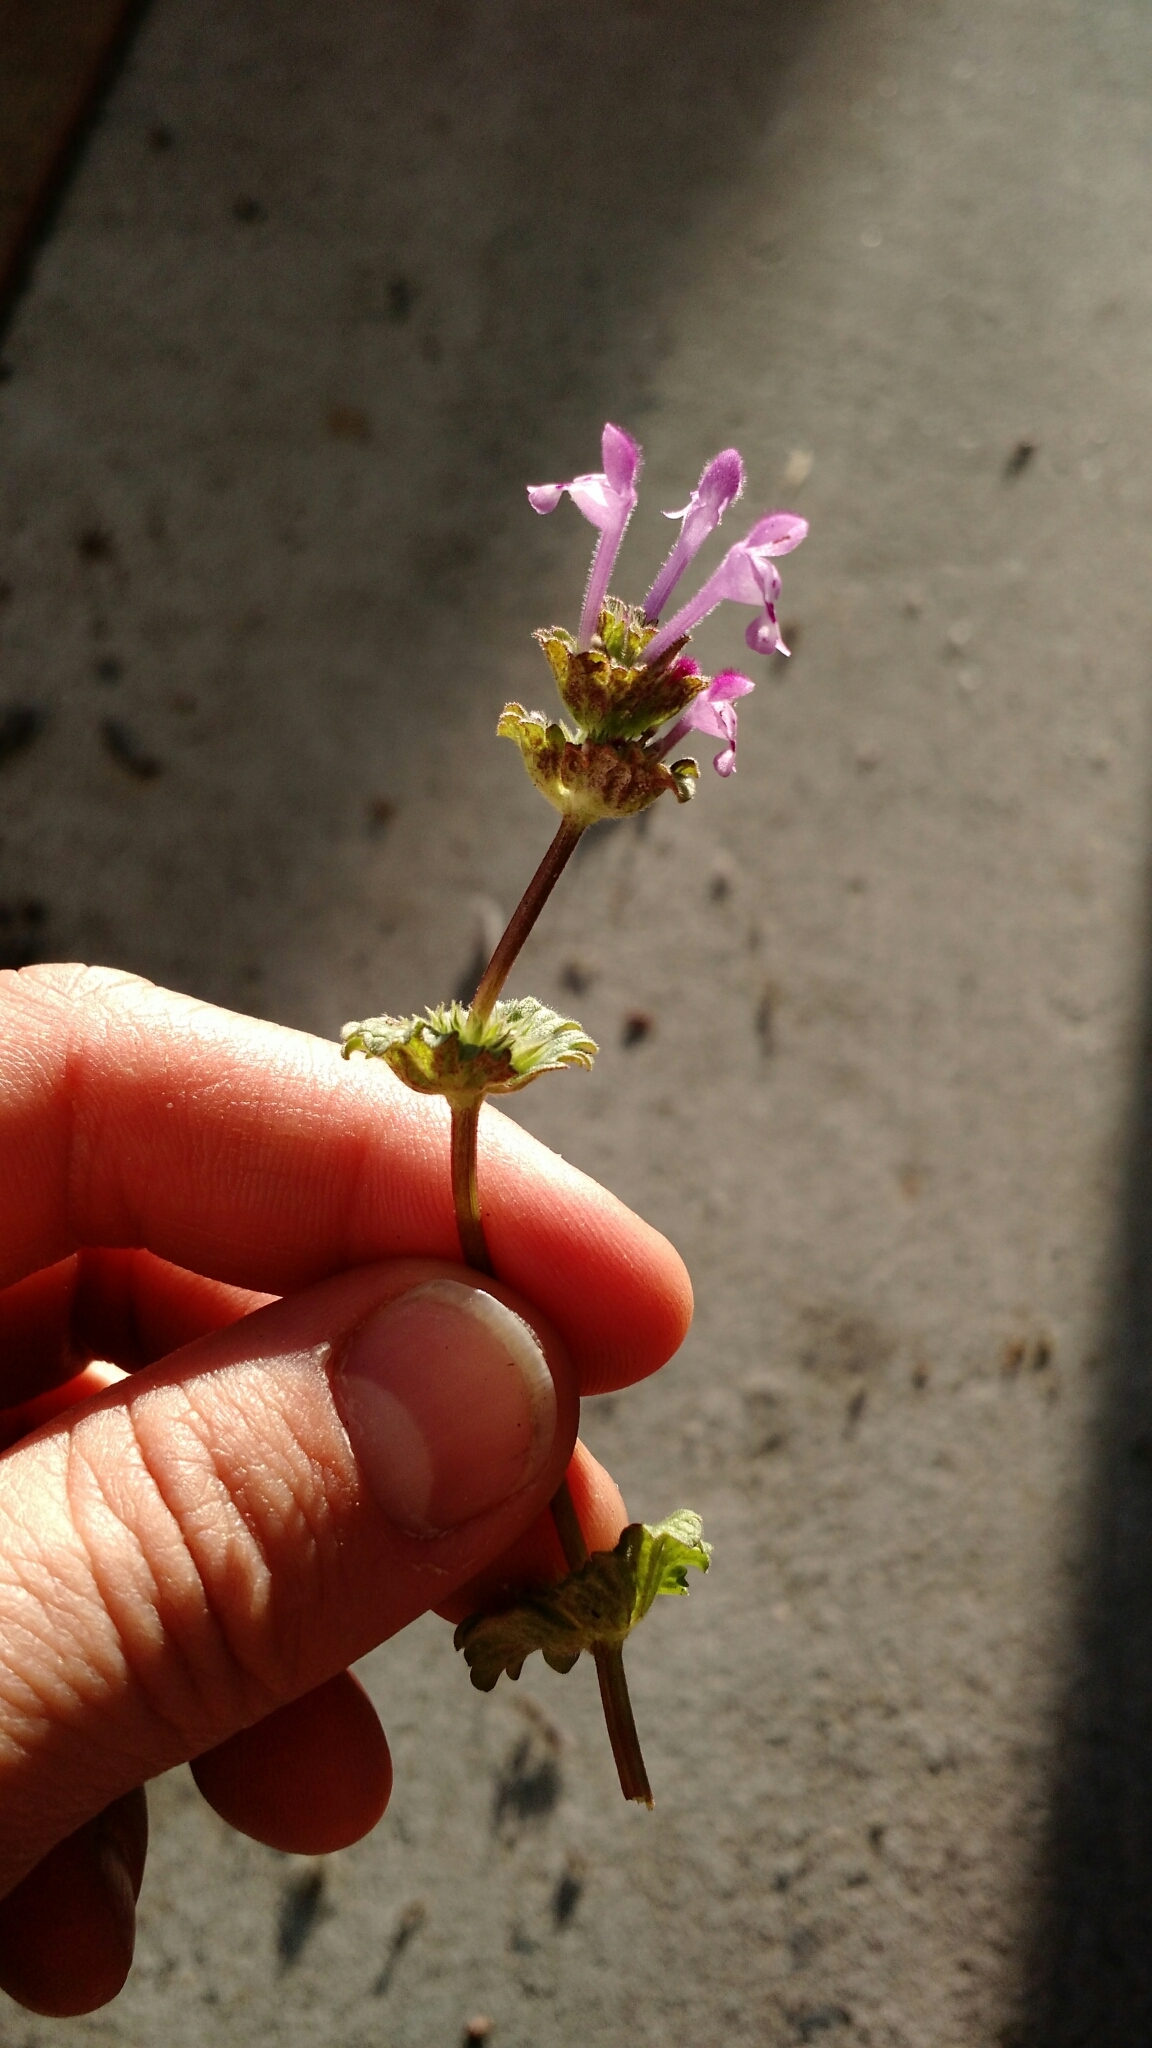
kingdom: Plantae
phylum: Tracheophyta
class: Magnoliopsida
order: Lamiales
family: Lamiaceae
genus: Lamium
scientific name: Lamium amplexicaule
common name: Henbit dead-nettle
